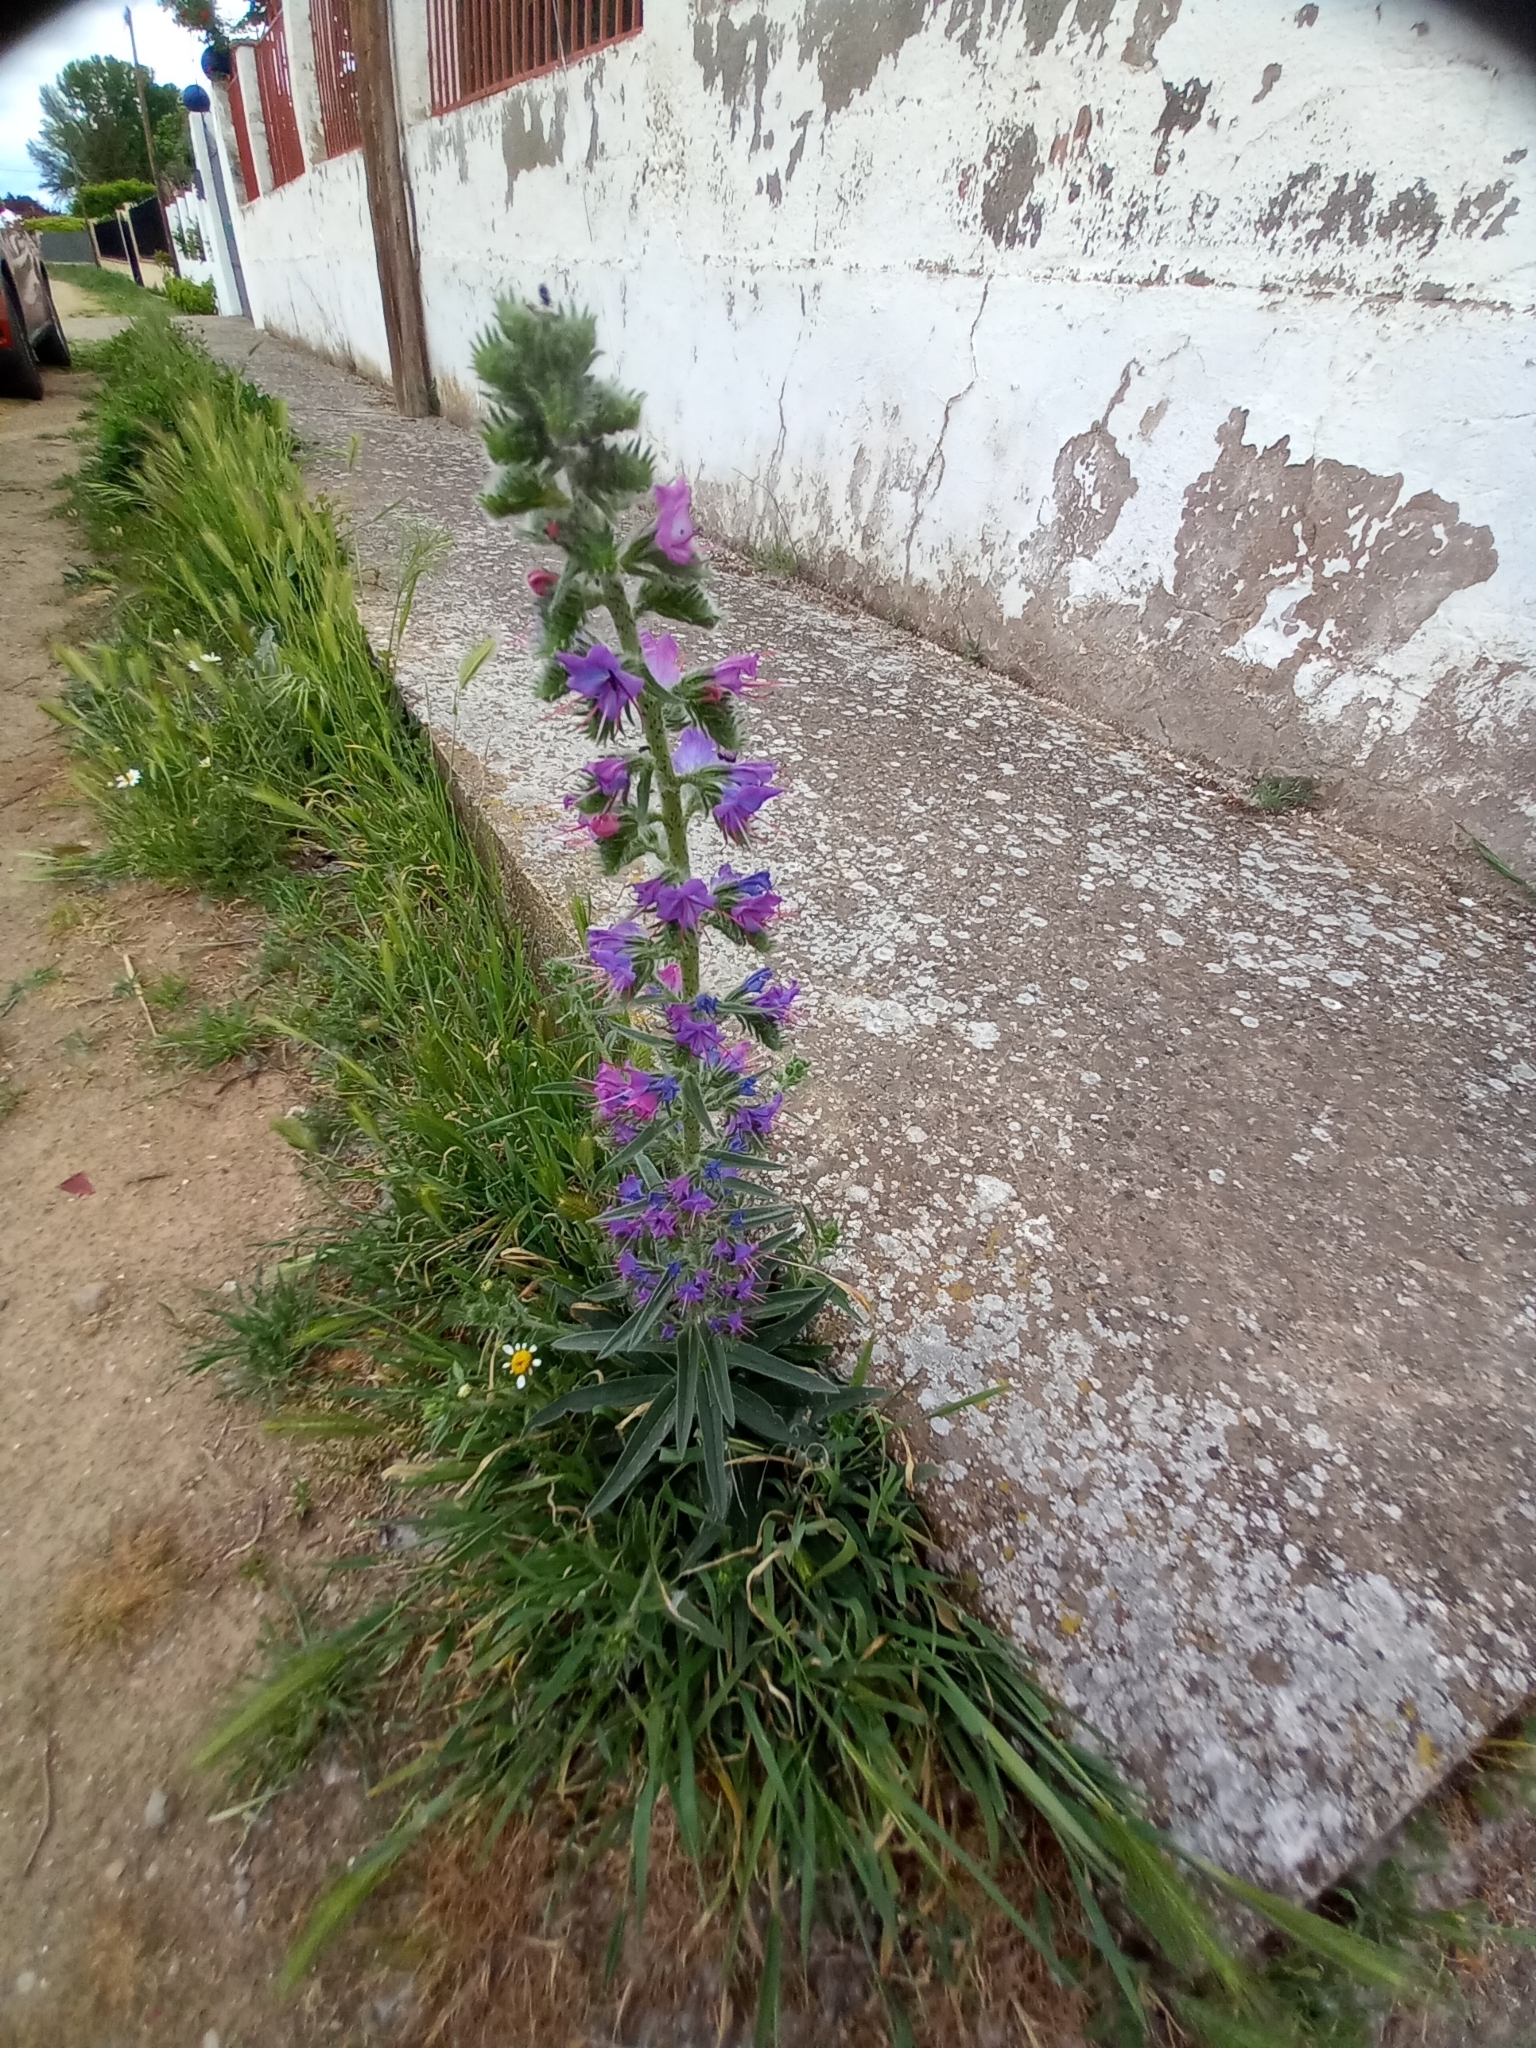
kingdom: Plantae
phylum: Tracheophyta
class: Magnoliopsida
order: Boraginales
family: Boraginaceae
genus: Echium
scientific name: Echium vulgare
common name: Common viper's bugloss
